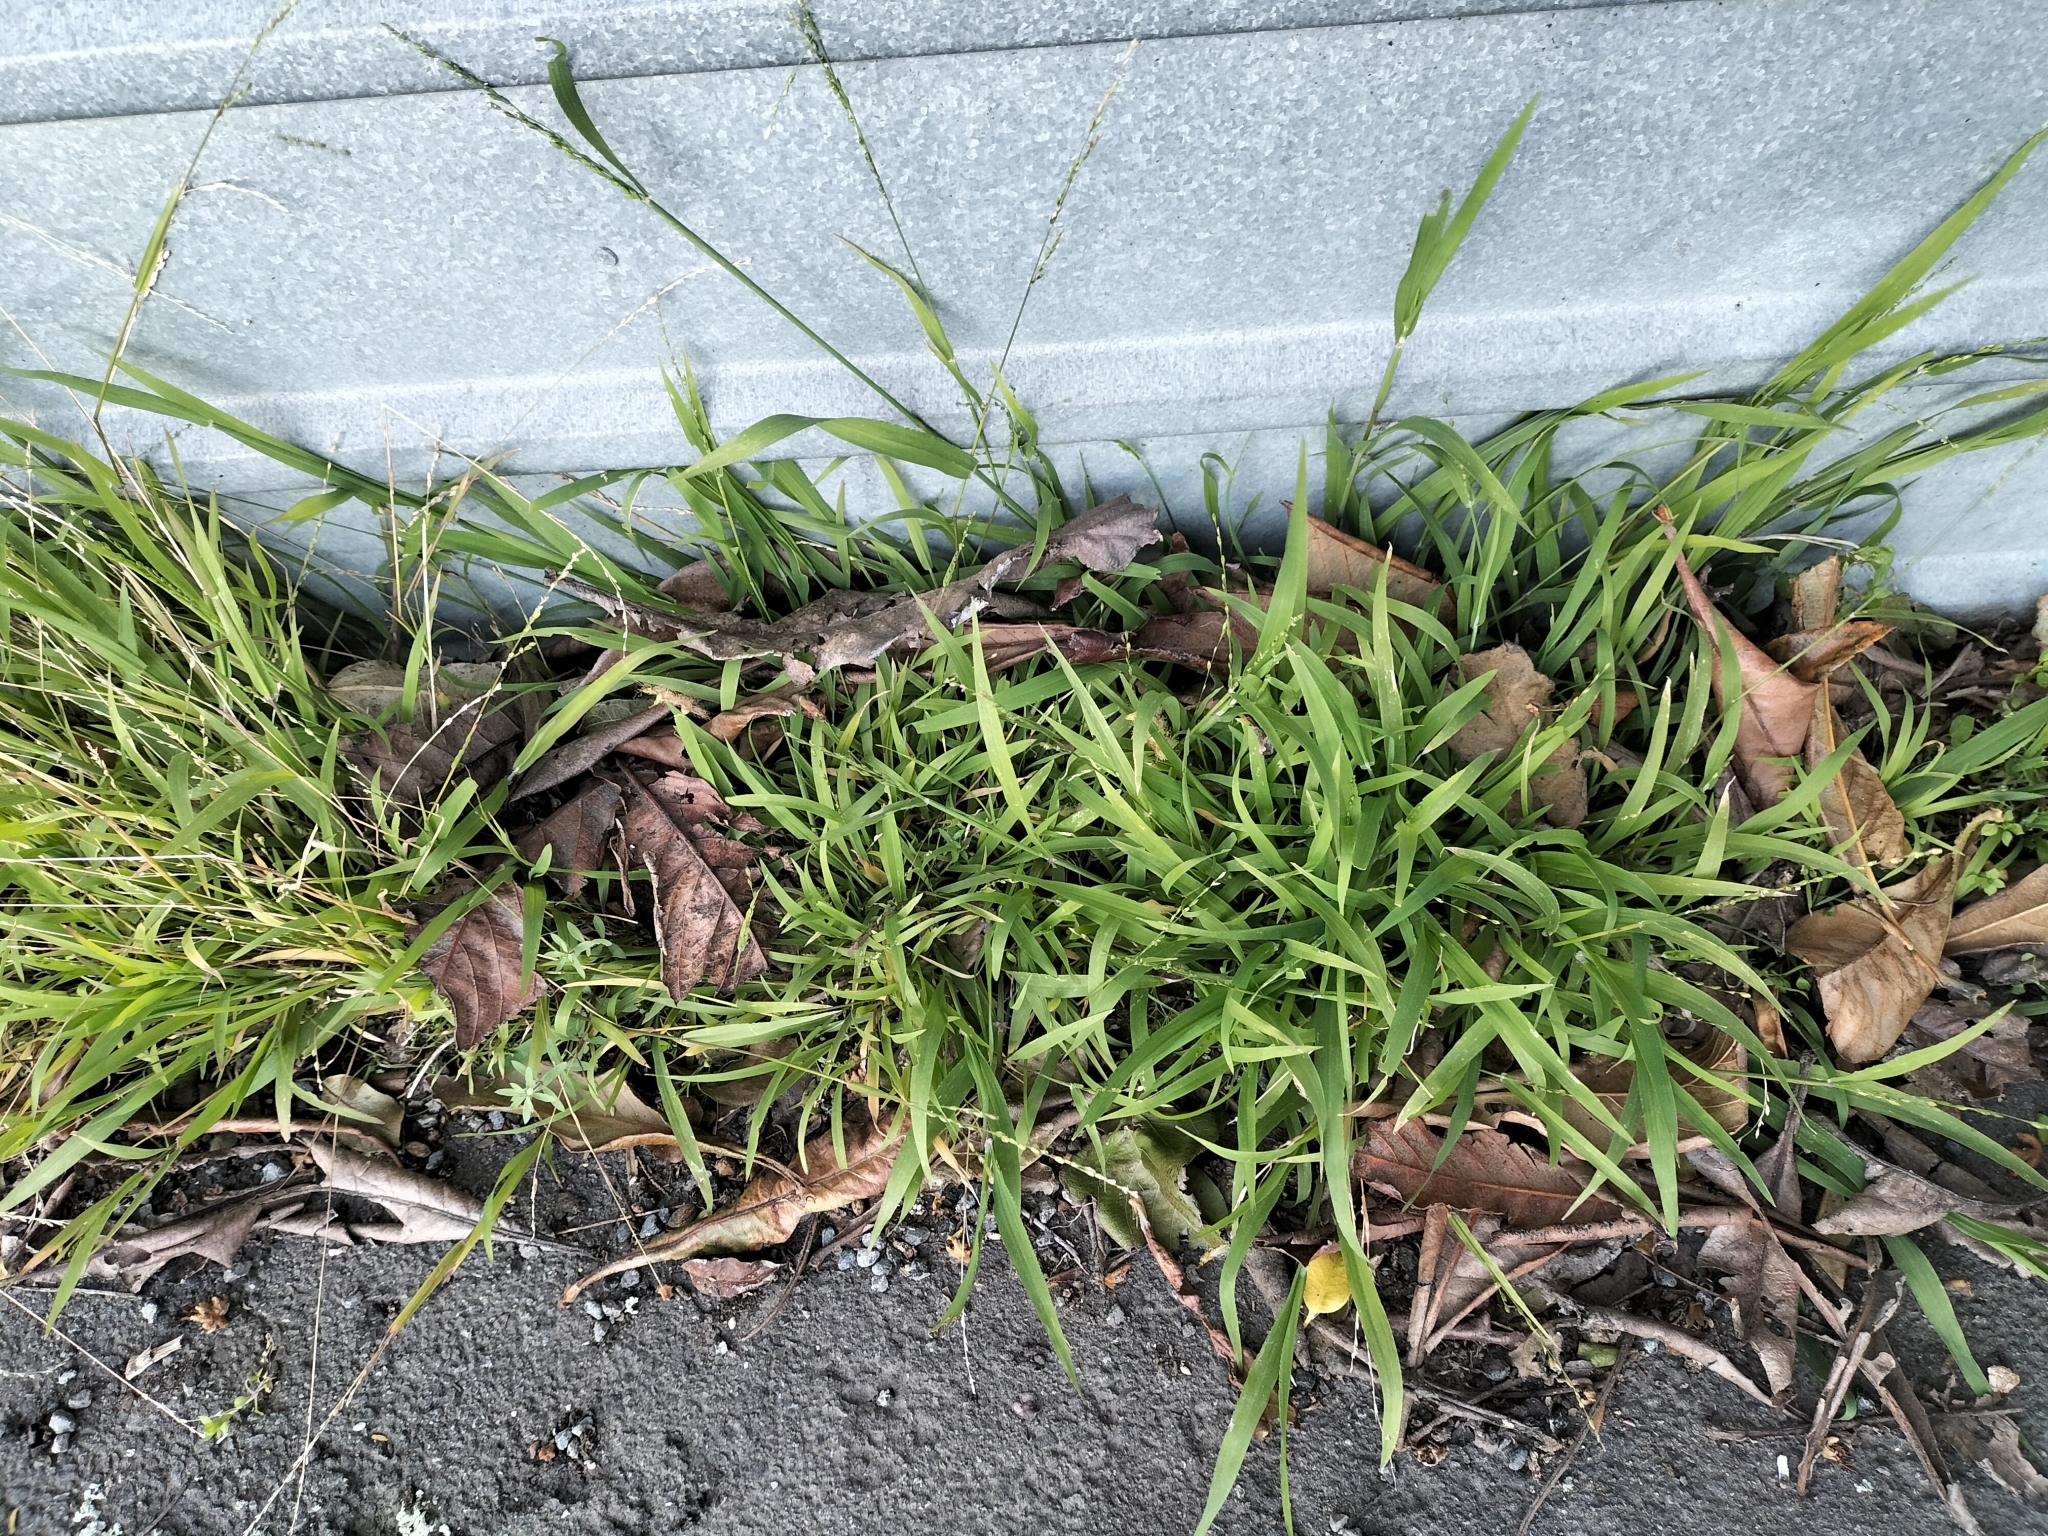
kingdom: Plantae
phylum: Tracheophyta
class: Liliopsida
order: Poales
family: Poaceae
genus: Ehrharta
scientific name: Ehrharta erecta
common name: Panic veldtgrass
